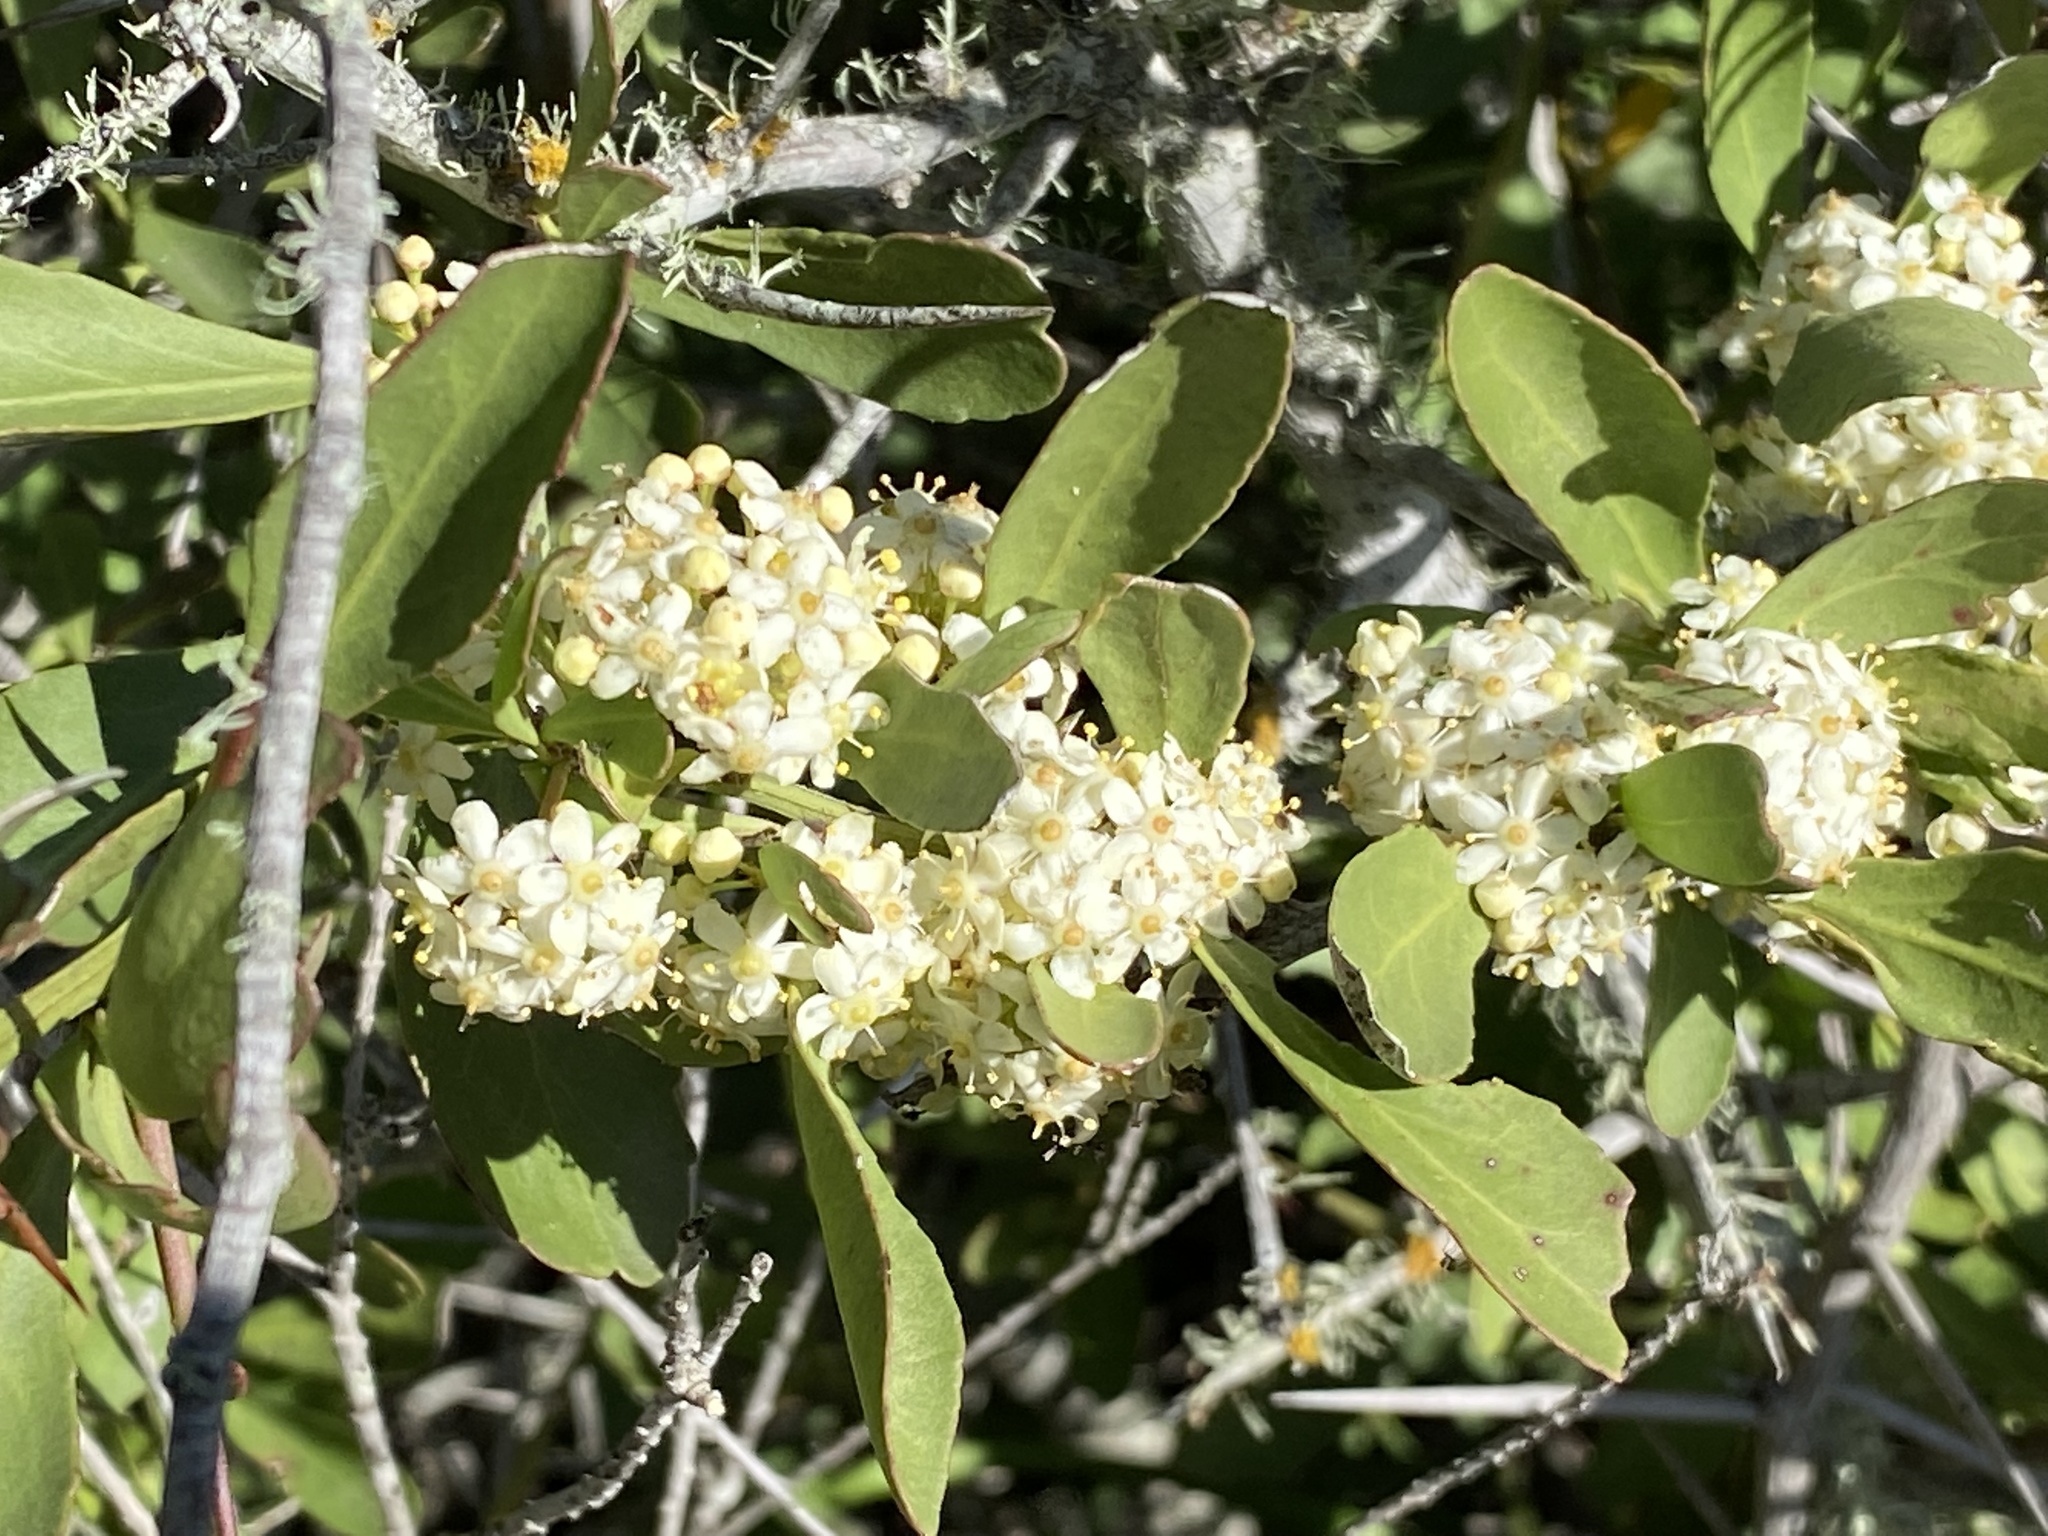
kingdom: Plantae
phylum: Tracheophyta
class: Magnoliopsida
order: Celastrales
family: Celastraceae
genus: Gymnosporia
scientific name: Gymnosporia buxifolia
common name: Common spike-thorn
